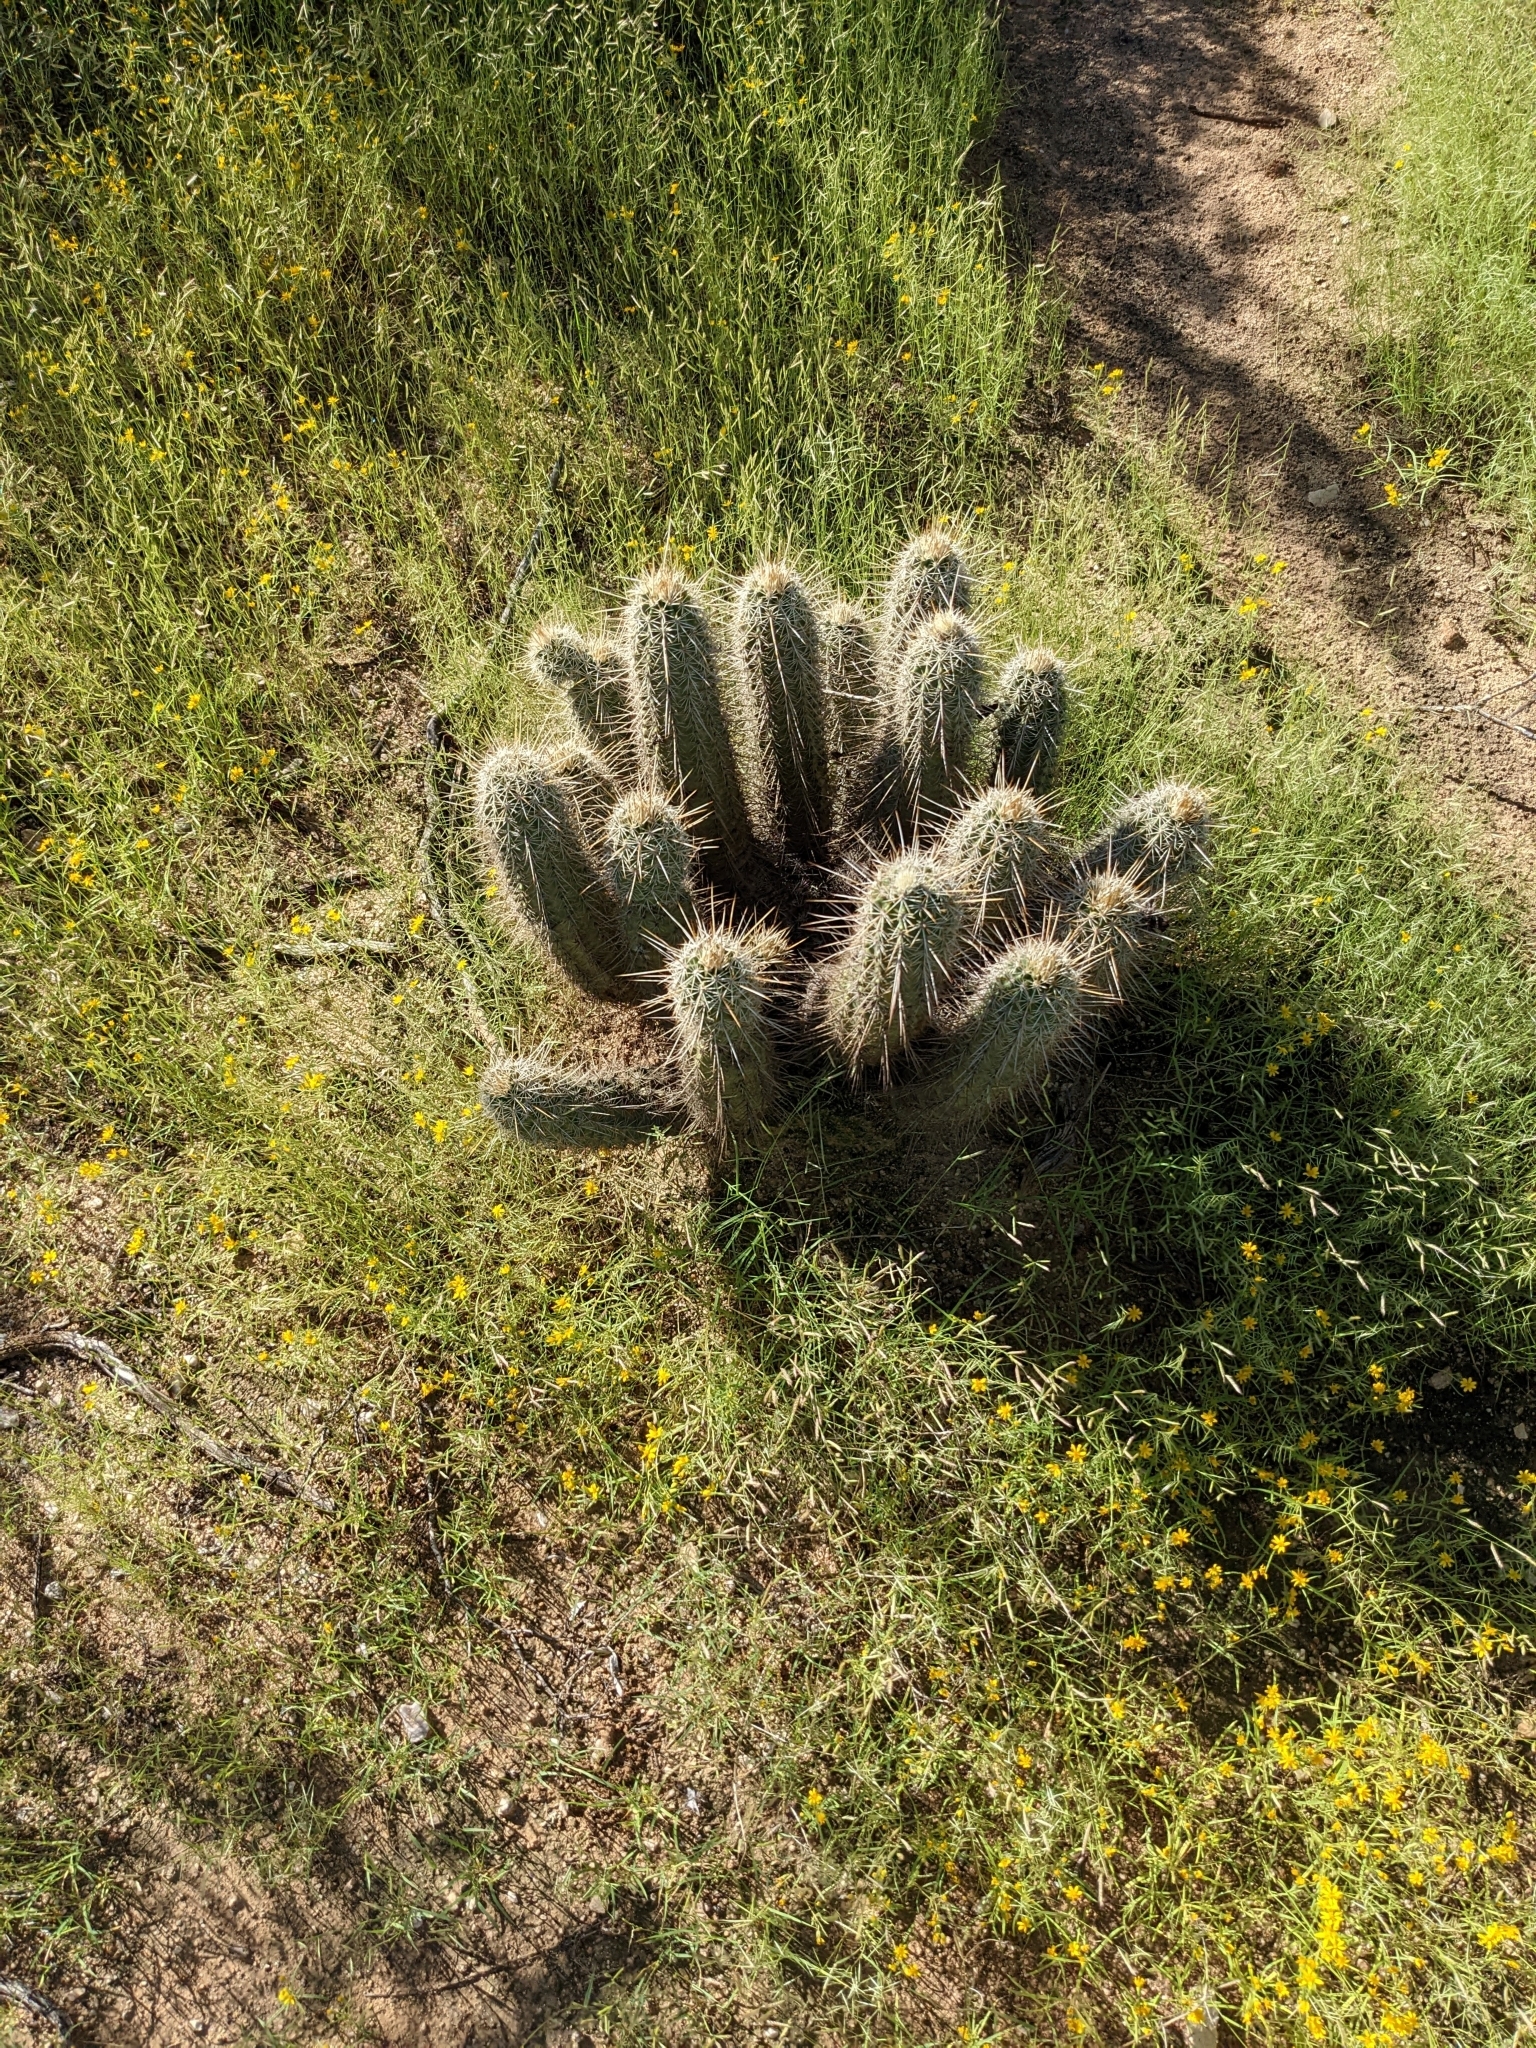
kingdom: Plantae
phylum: Tracheophyta
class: Magnoliopsida
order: Caryophyllales
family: Cactaceae
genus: Echinocereus
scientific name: Echinocereus engelmannii
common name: Engelmann's hedgehog cactus
